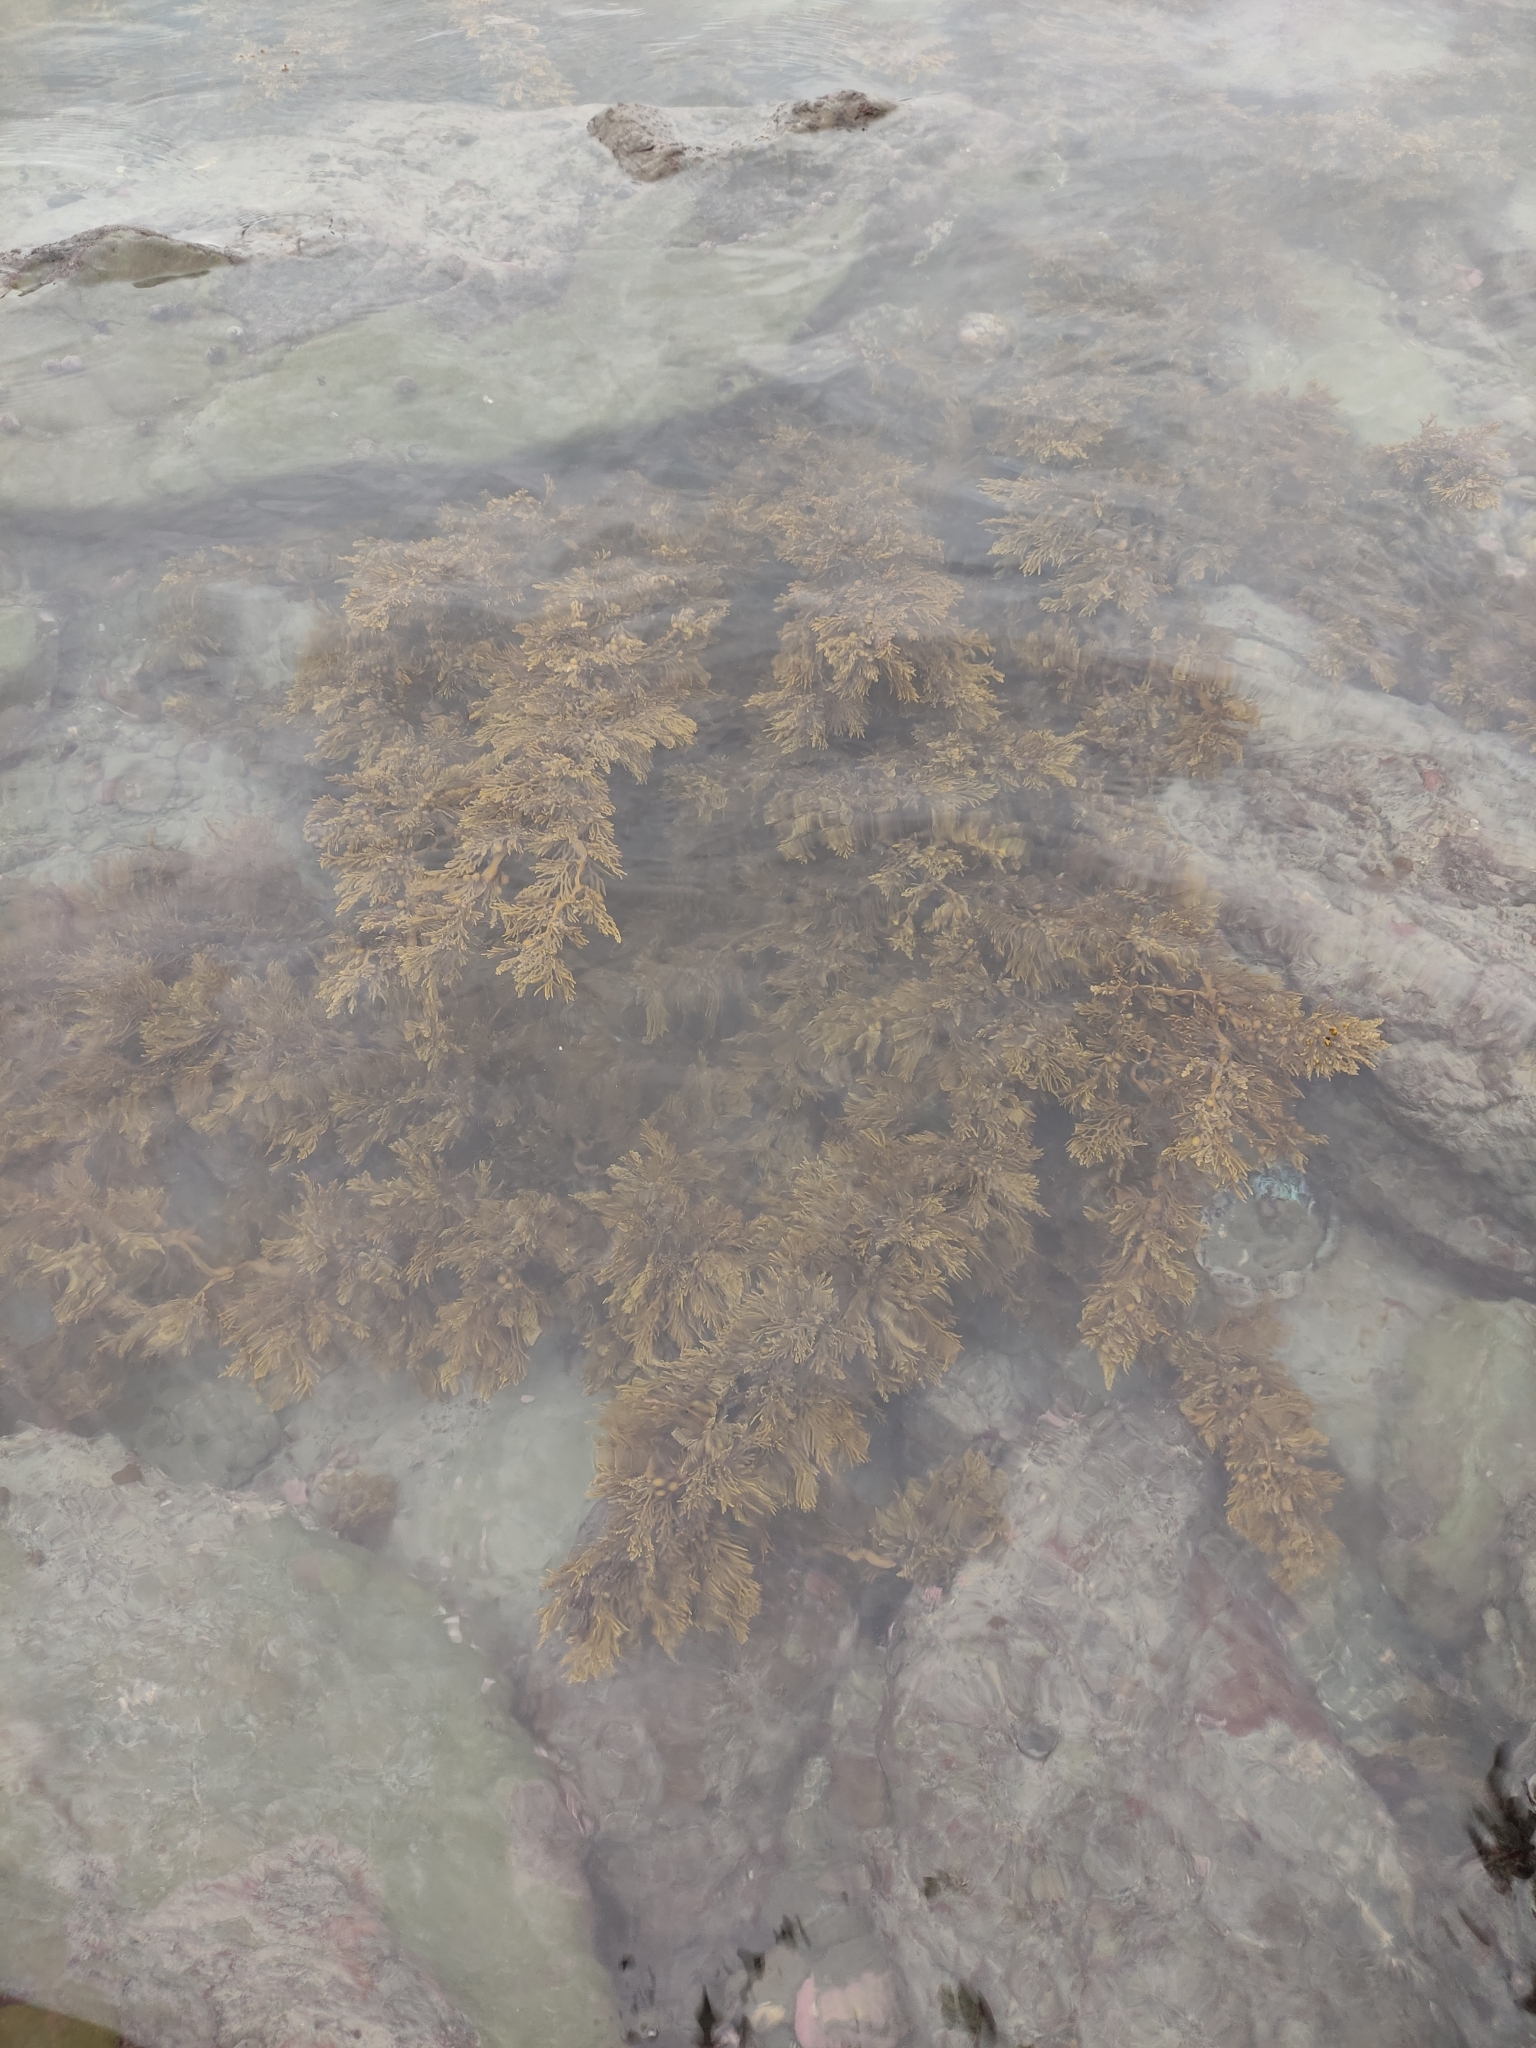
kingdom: Chromista
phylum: Ochrophyta
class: Phaeophyceae
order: Fucales
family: Sargassaceae
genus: Cystophora
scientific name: Cystophora scalaris
